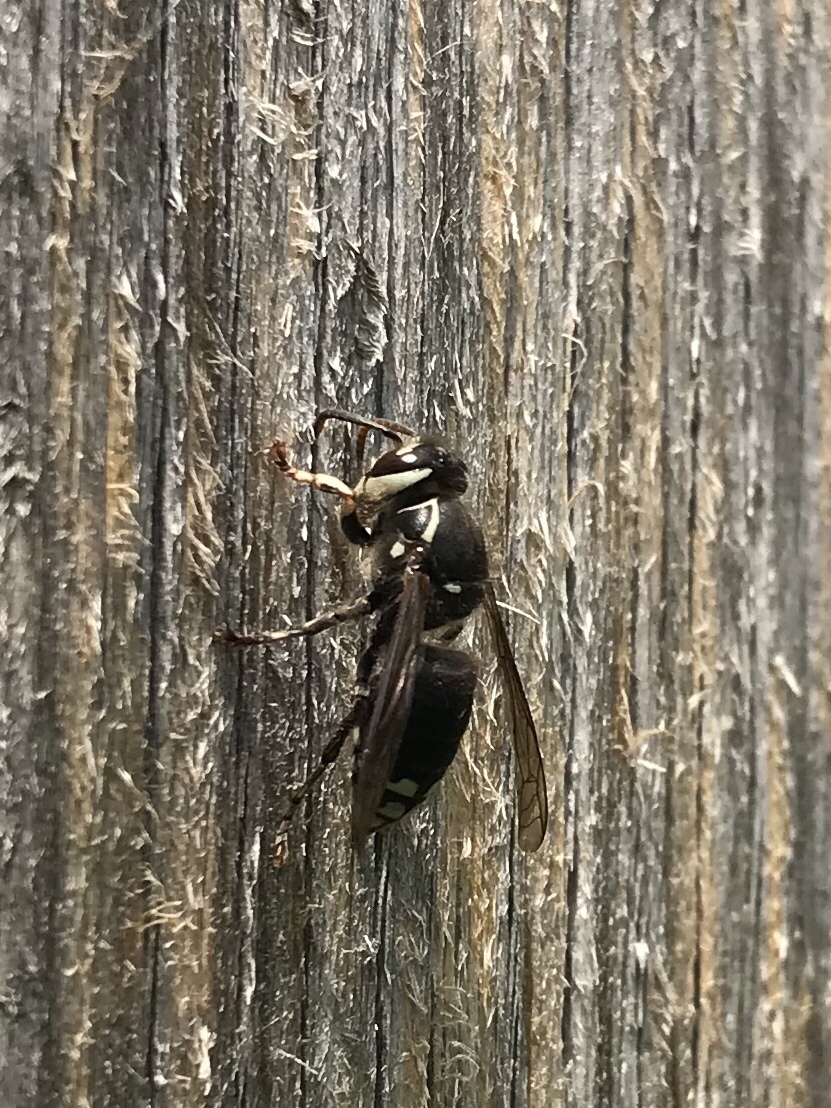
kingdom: Animalia
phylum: Arthropoda
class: Insecta
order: Hymenoptera
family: Vespidae
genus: Dolichovespula
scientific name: Dolichovespula maculata
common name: Bald-faced hornet
